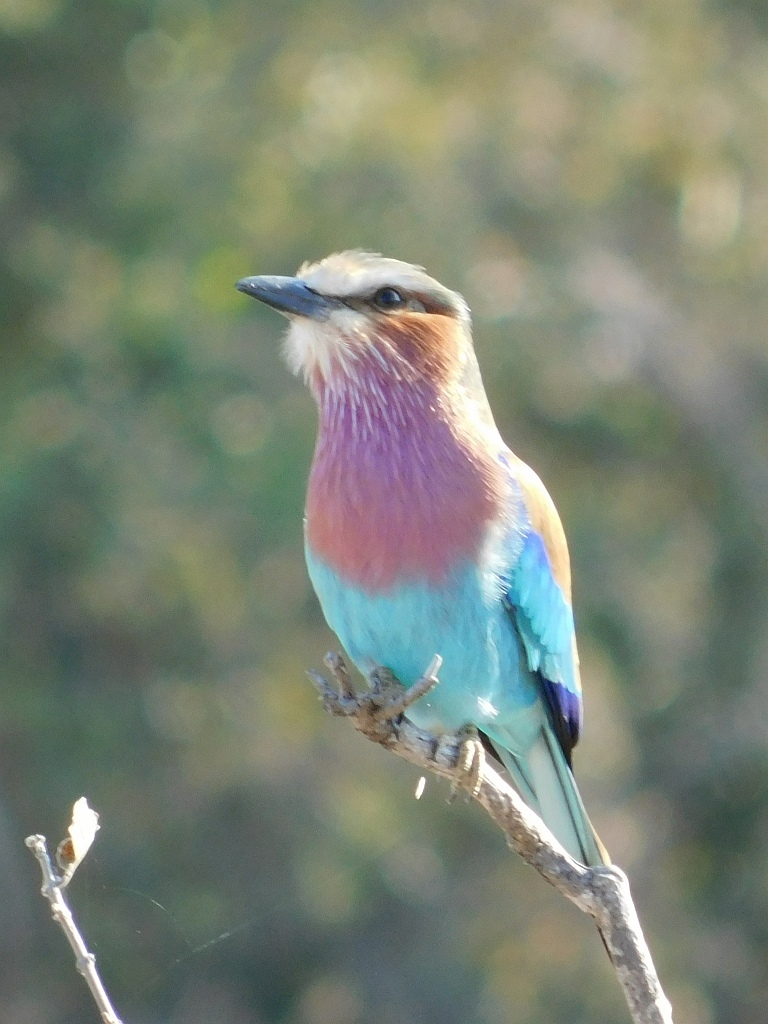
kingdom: Animalia
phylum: Chordata
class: Aves
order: Coraciiformes
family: Coraciidae
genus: Coracias
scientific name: Coracias caudatus
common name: Lilac-breasted roller
